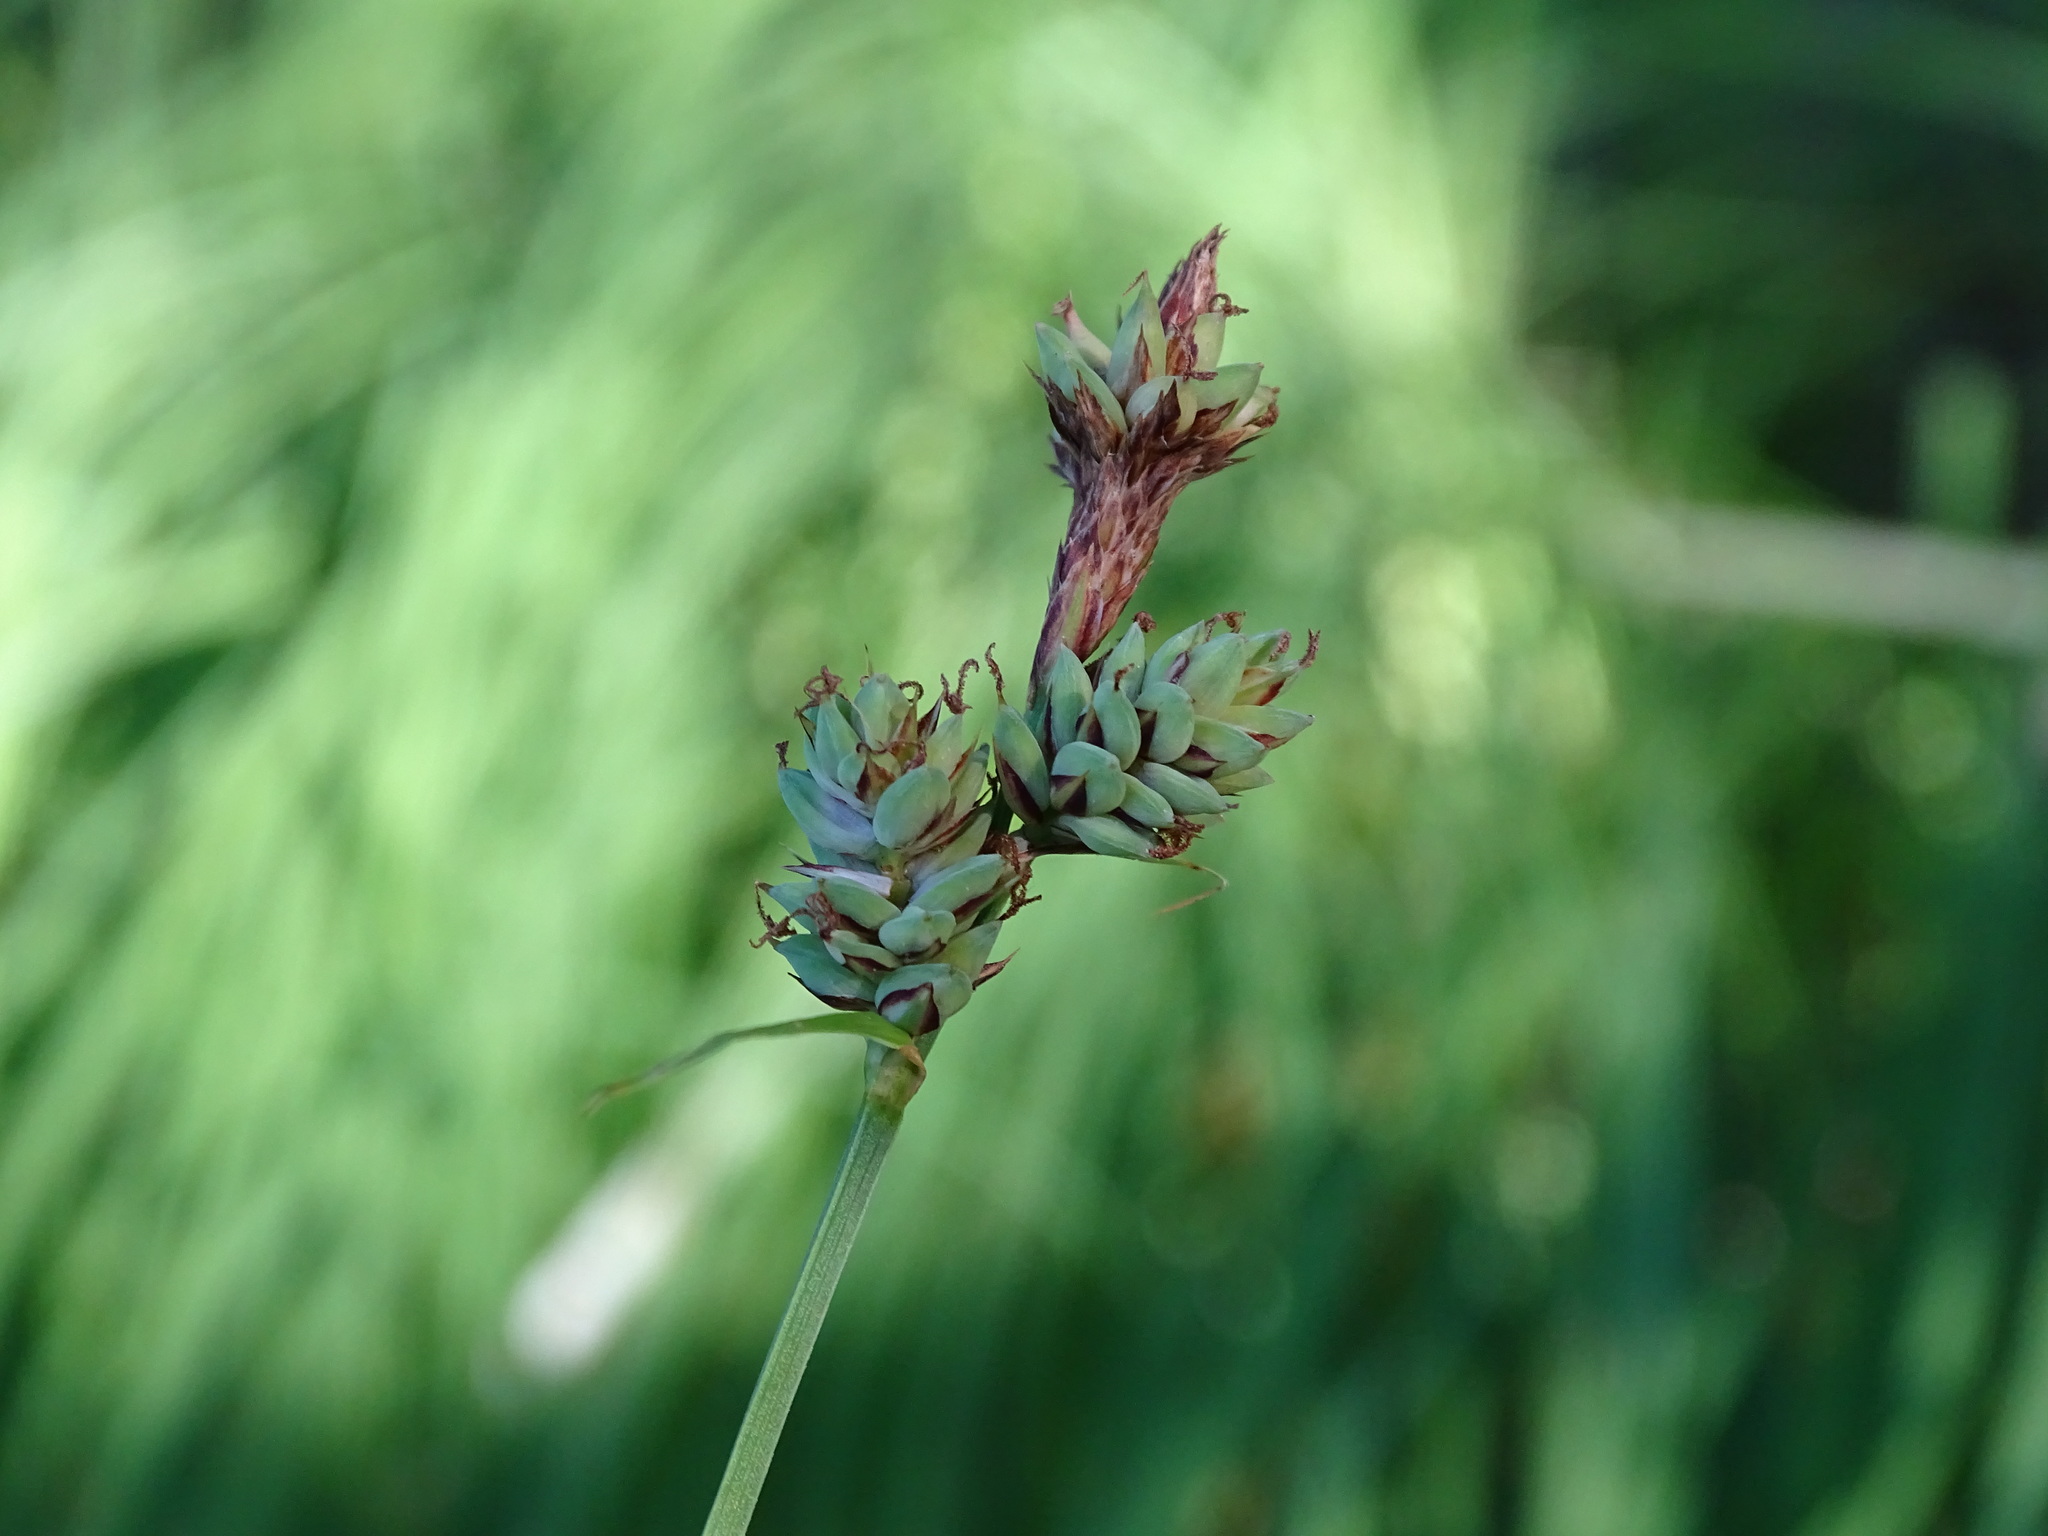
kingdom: Plantae
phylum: Tracheophyta
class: Liliopsida
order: Poales
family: Cyperaceae
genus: Carex
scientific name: Carex buxbaumii
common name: Club sedge
